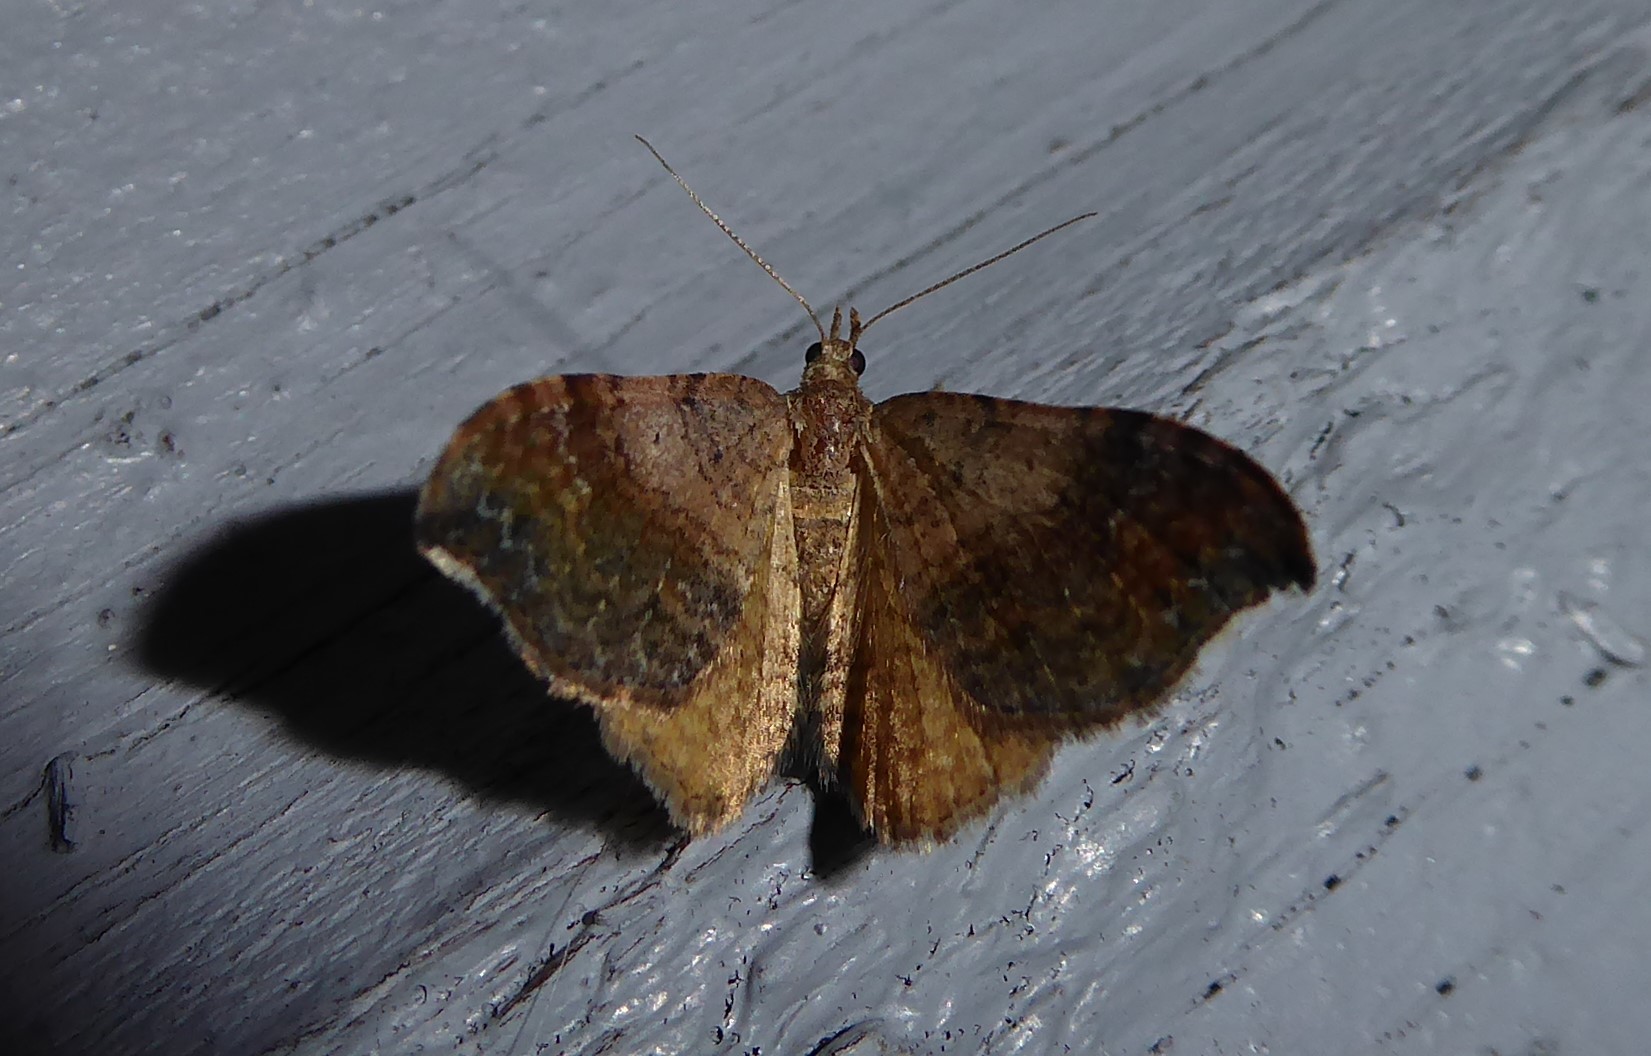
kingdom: Animalia
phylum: Arthropoda
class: Insecta
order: Lepidoptera
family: Geometridae
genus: Homodotis
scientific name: Homodotis megaspilata
